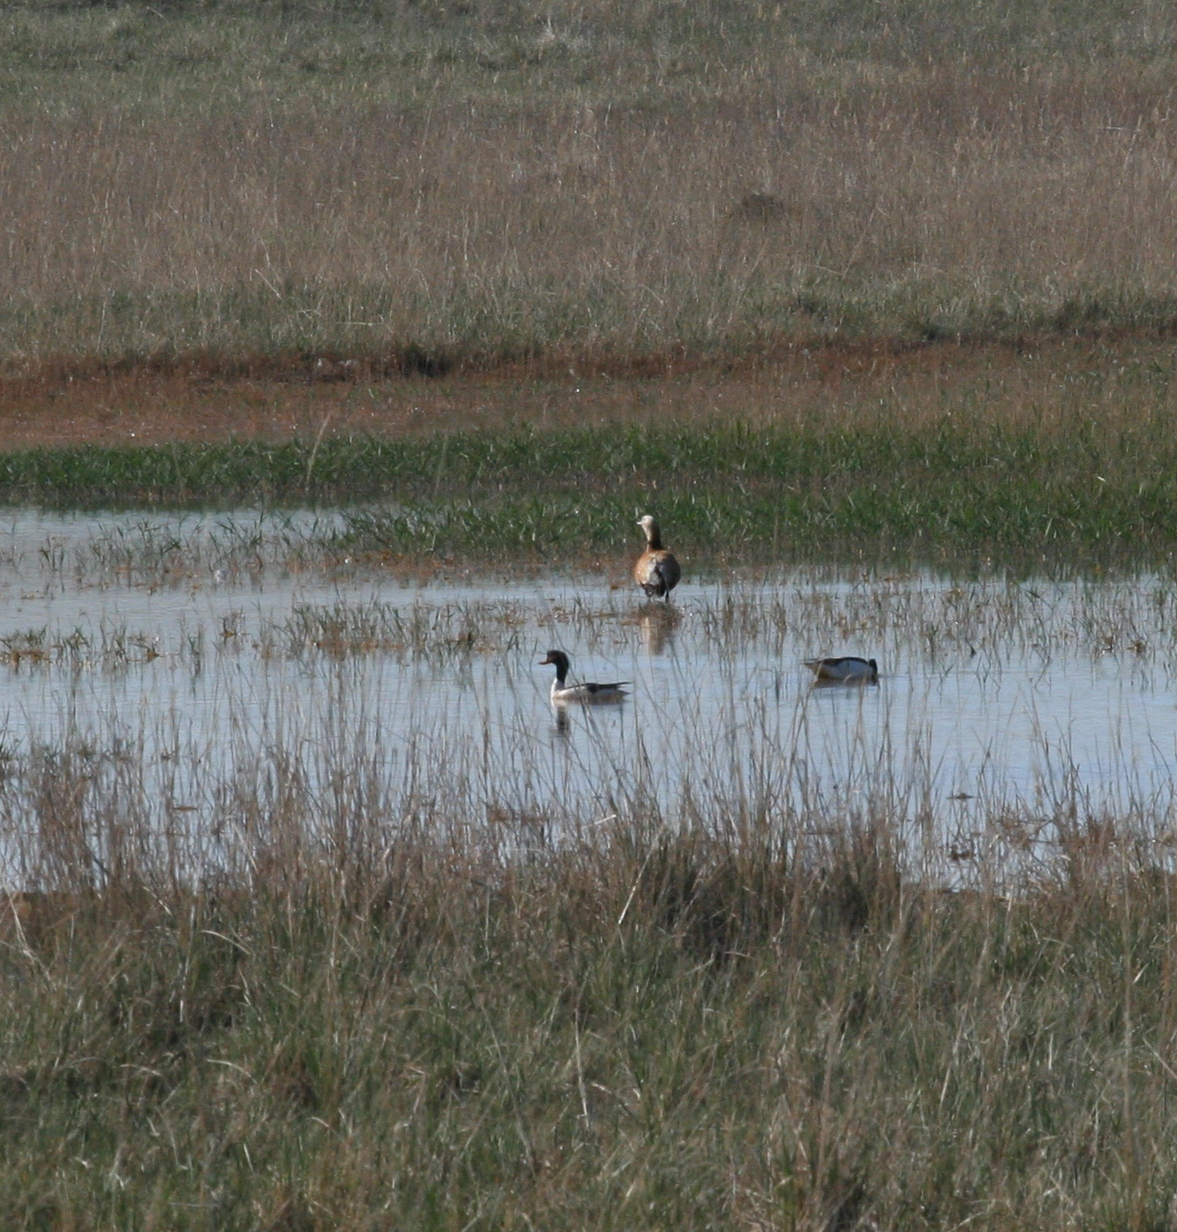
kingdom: Animalia
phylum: Chordata
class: Aves
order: Anseriformes
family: Anatidae
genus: Tadorna
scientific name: Tadorna tadorna
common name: Common shelduck
